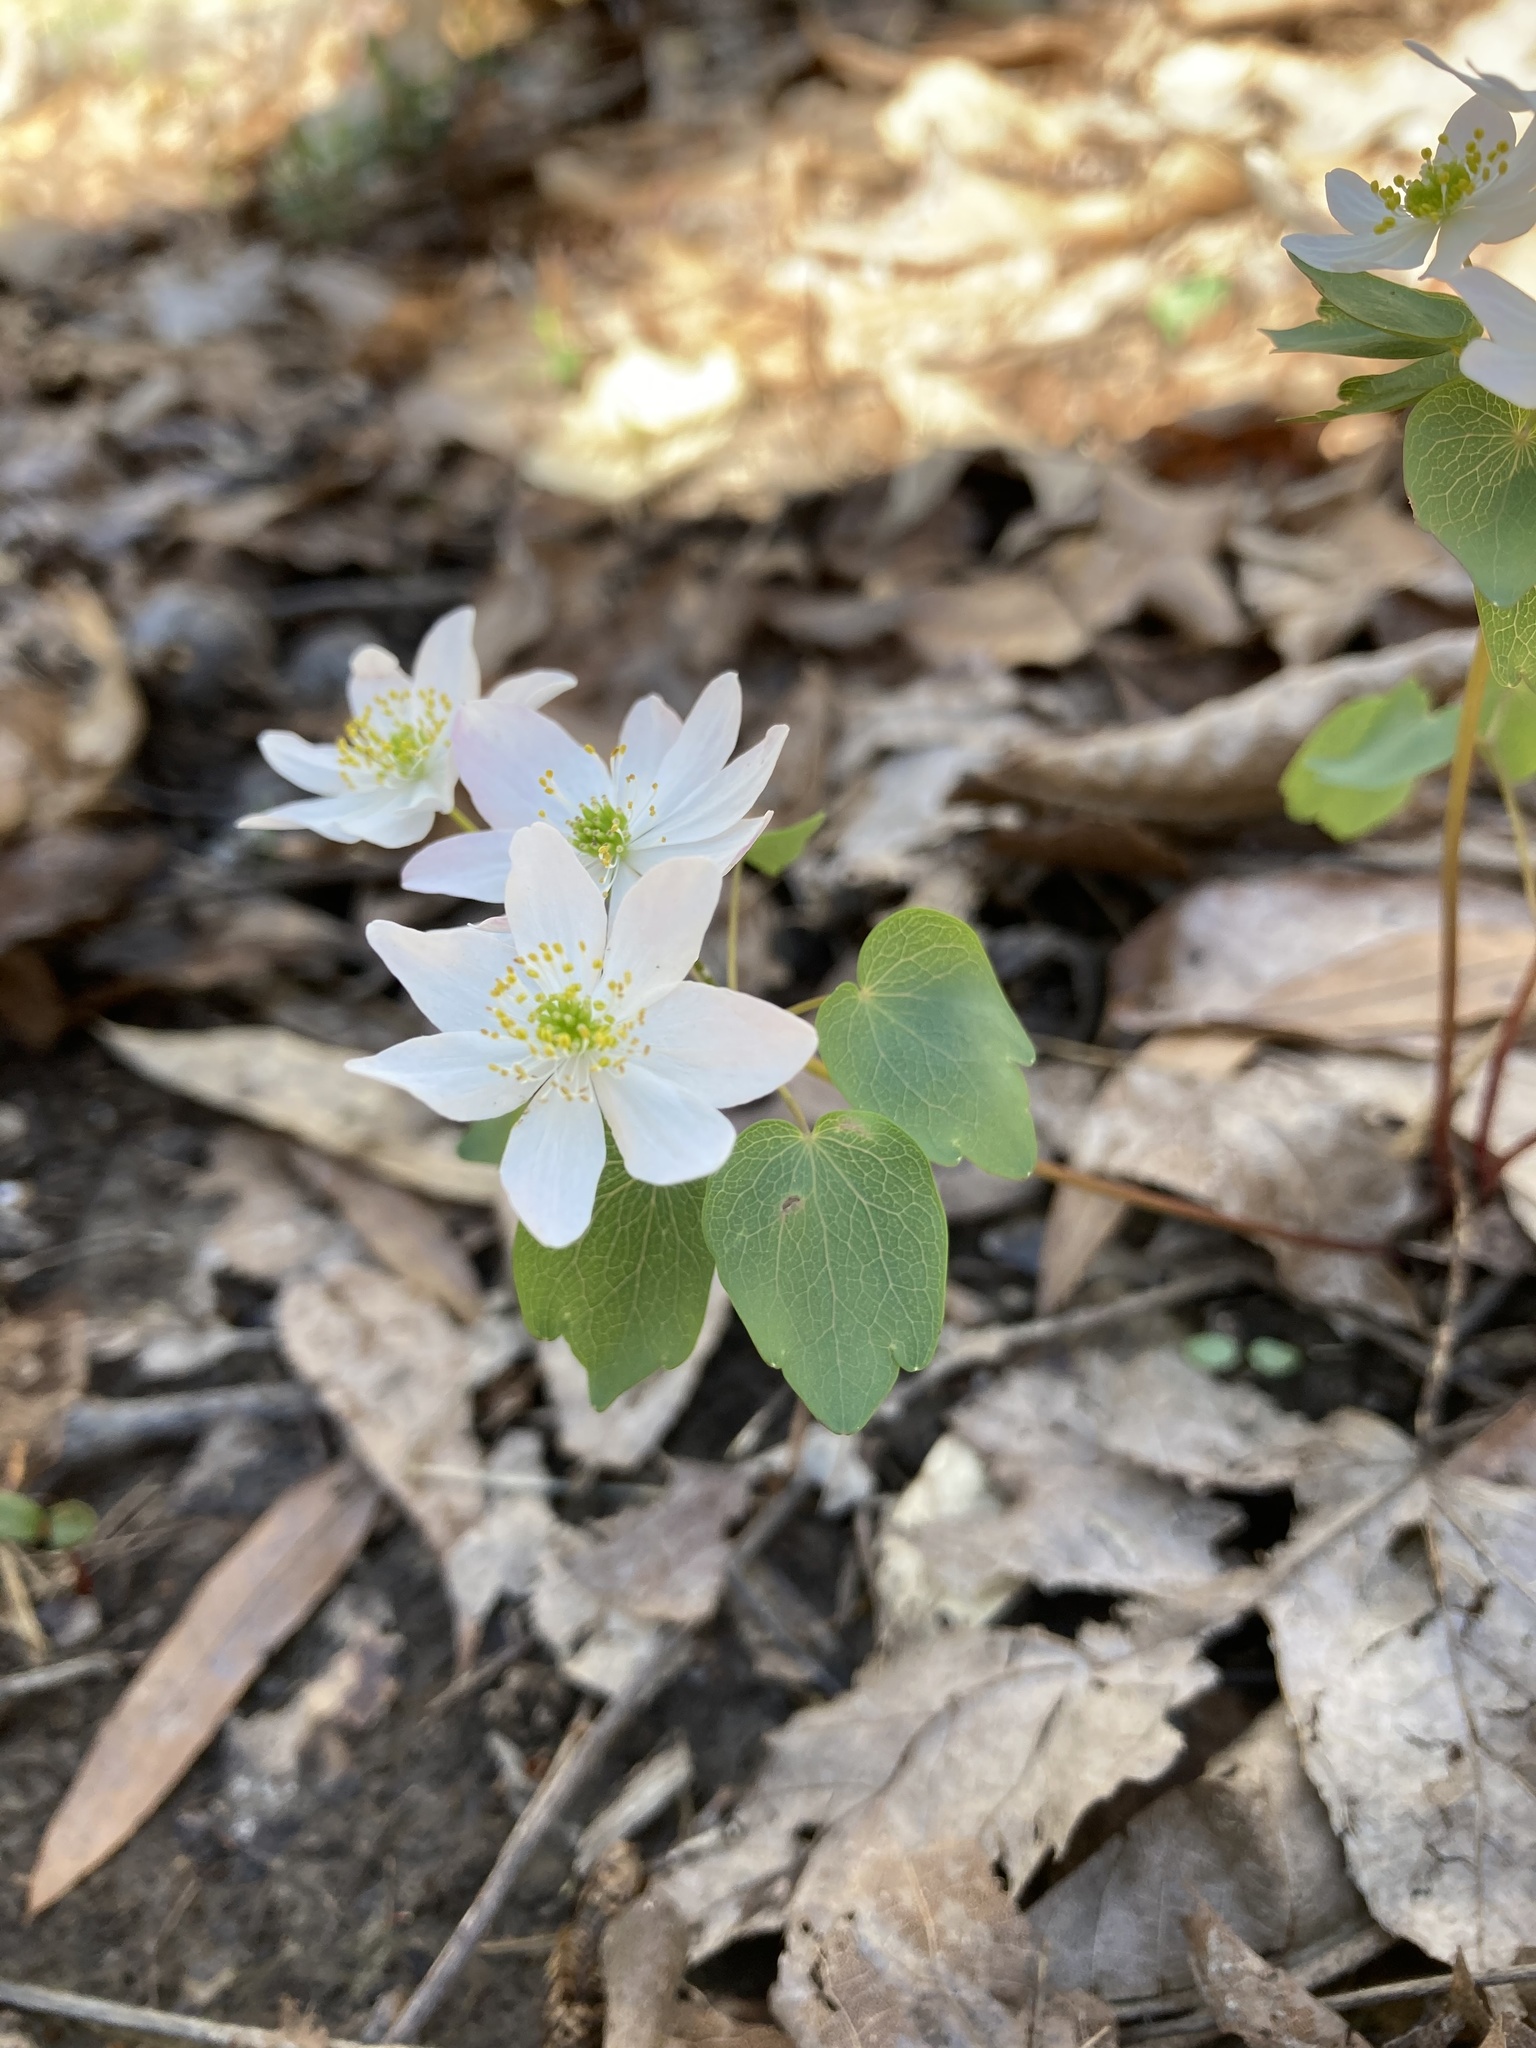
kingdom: Plantae
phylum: Tracheophyta
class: Magnoliopsida
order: Ranunculales
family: Ranunculaceae
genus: Thalictrum
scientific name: Thalictrum thalictroides
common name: Rue-anemone
